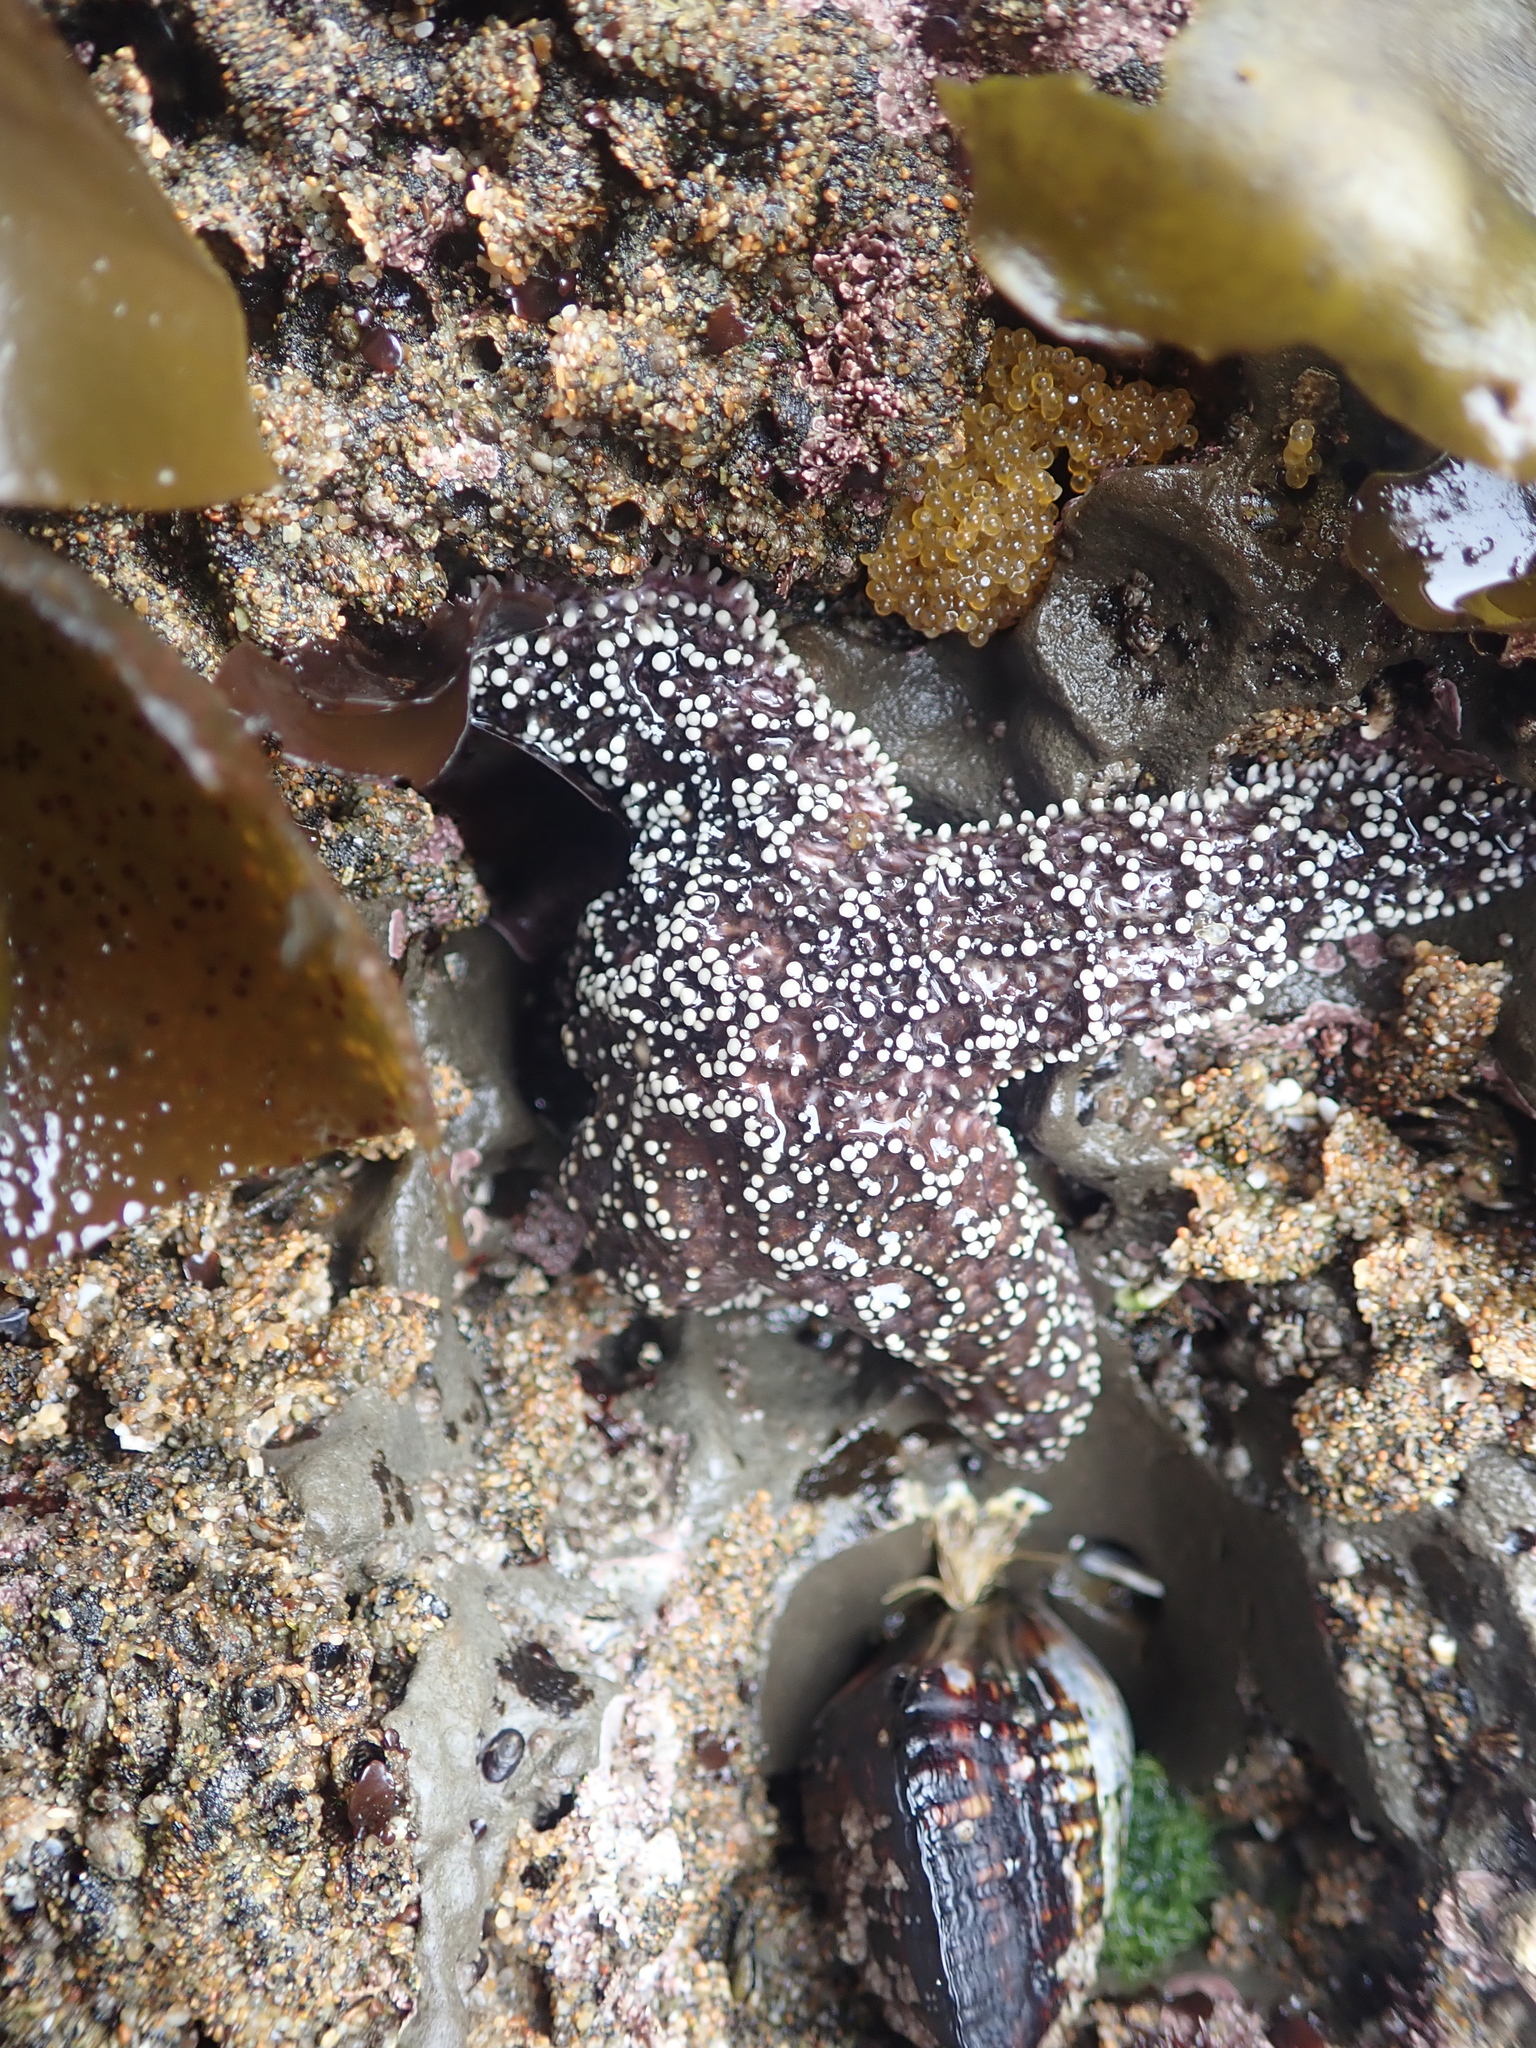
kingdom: Animalia
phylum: Echinodermata
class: Asteroidea
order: Forcipulatida
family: Asteriidae
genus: Pisaster
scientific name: Pisaster ochraceus
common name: Ochre stars
